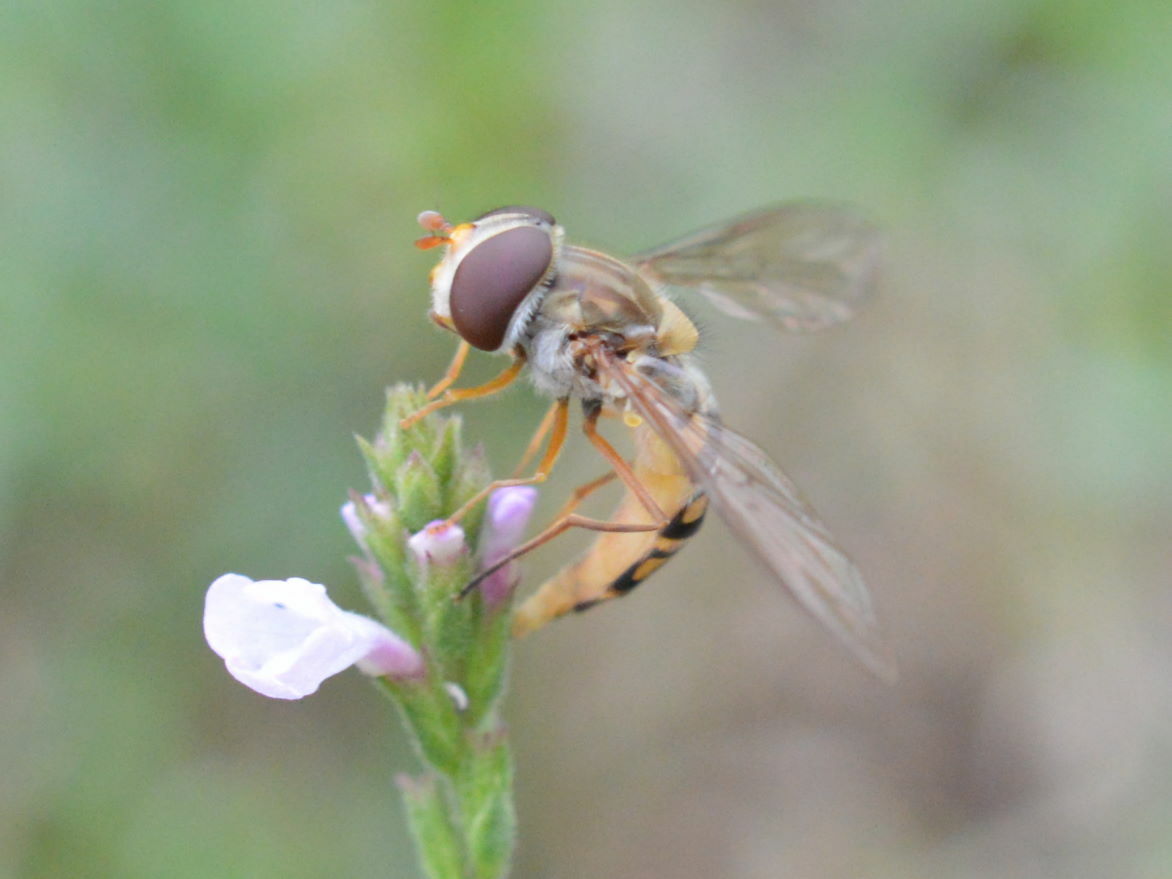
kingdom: Animalia
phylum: Arthropoda
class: Insecta
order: Diptera
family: Syrphidae
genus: Episyrphus
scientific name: Episyrphus balteatus
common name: Marmalade hoverfly
